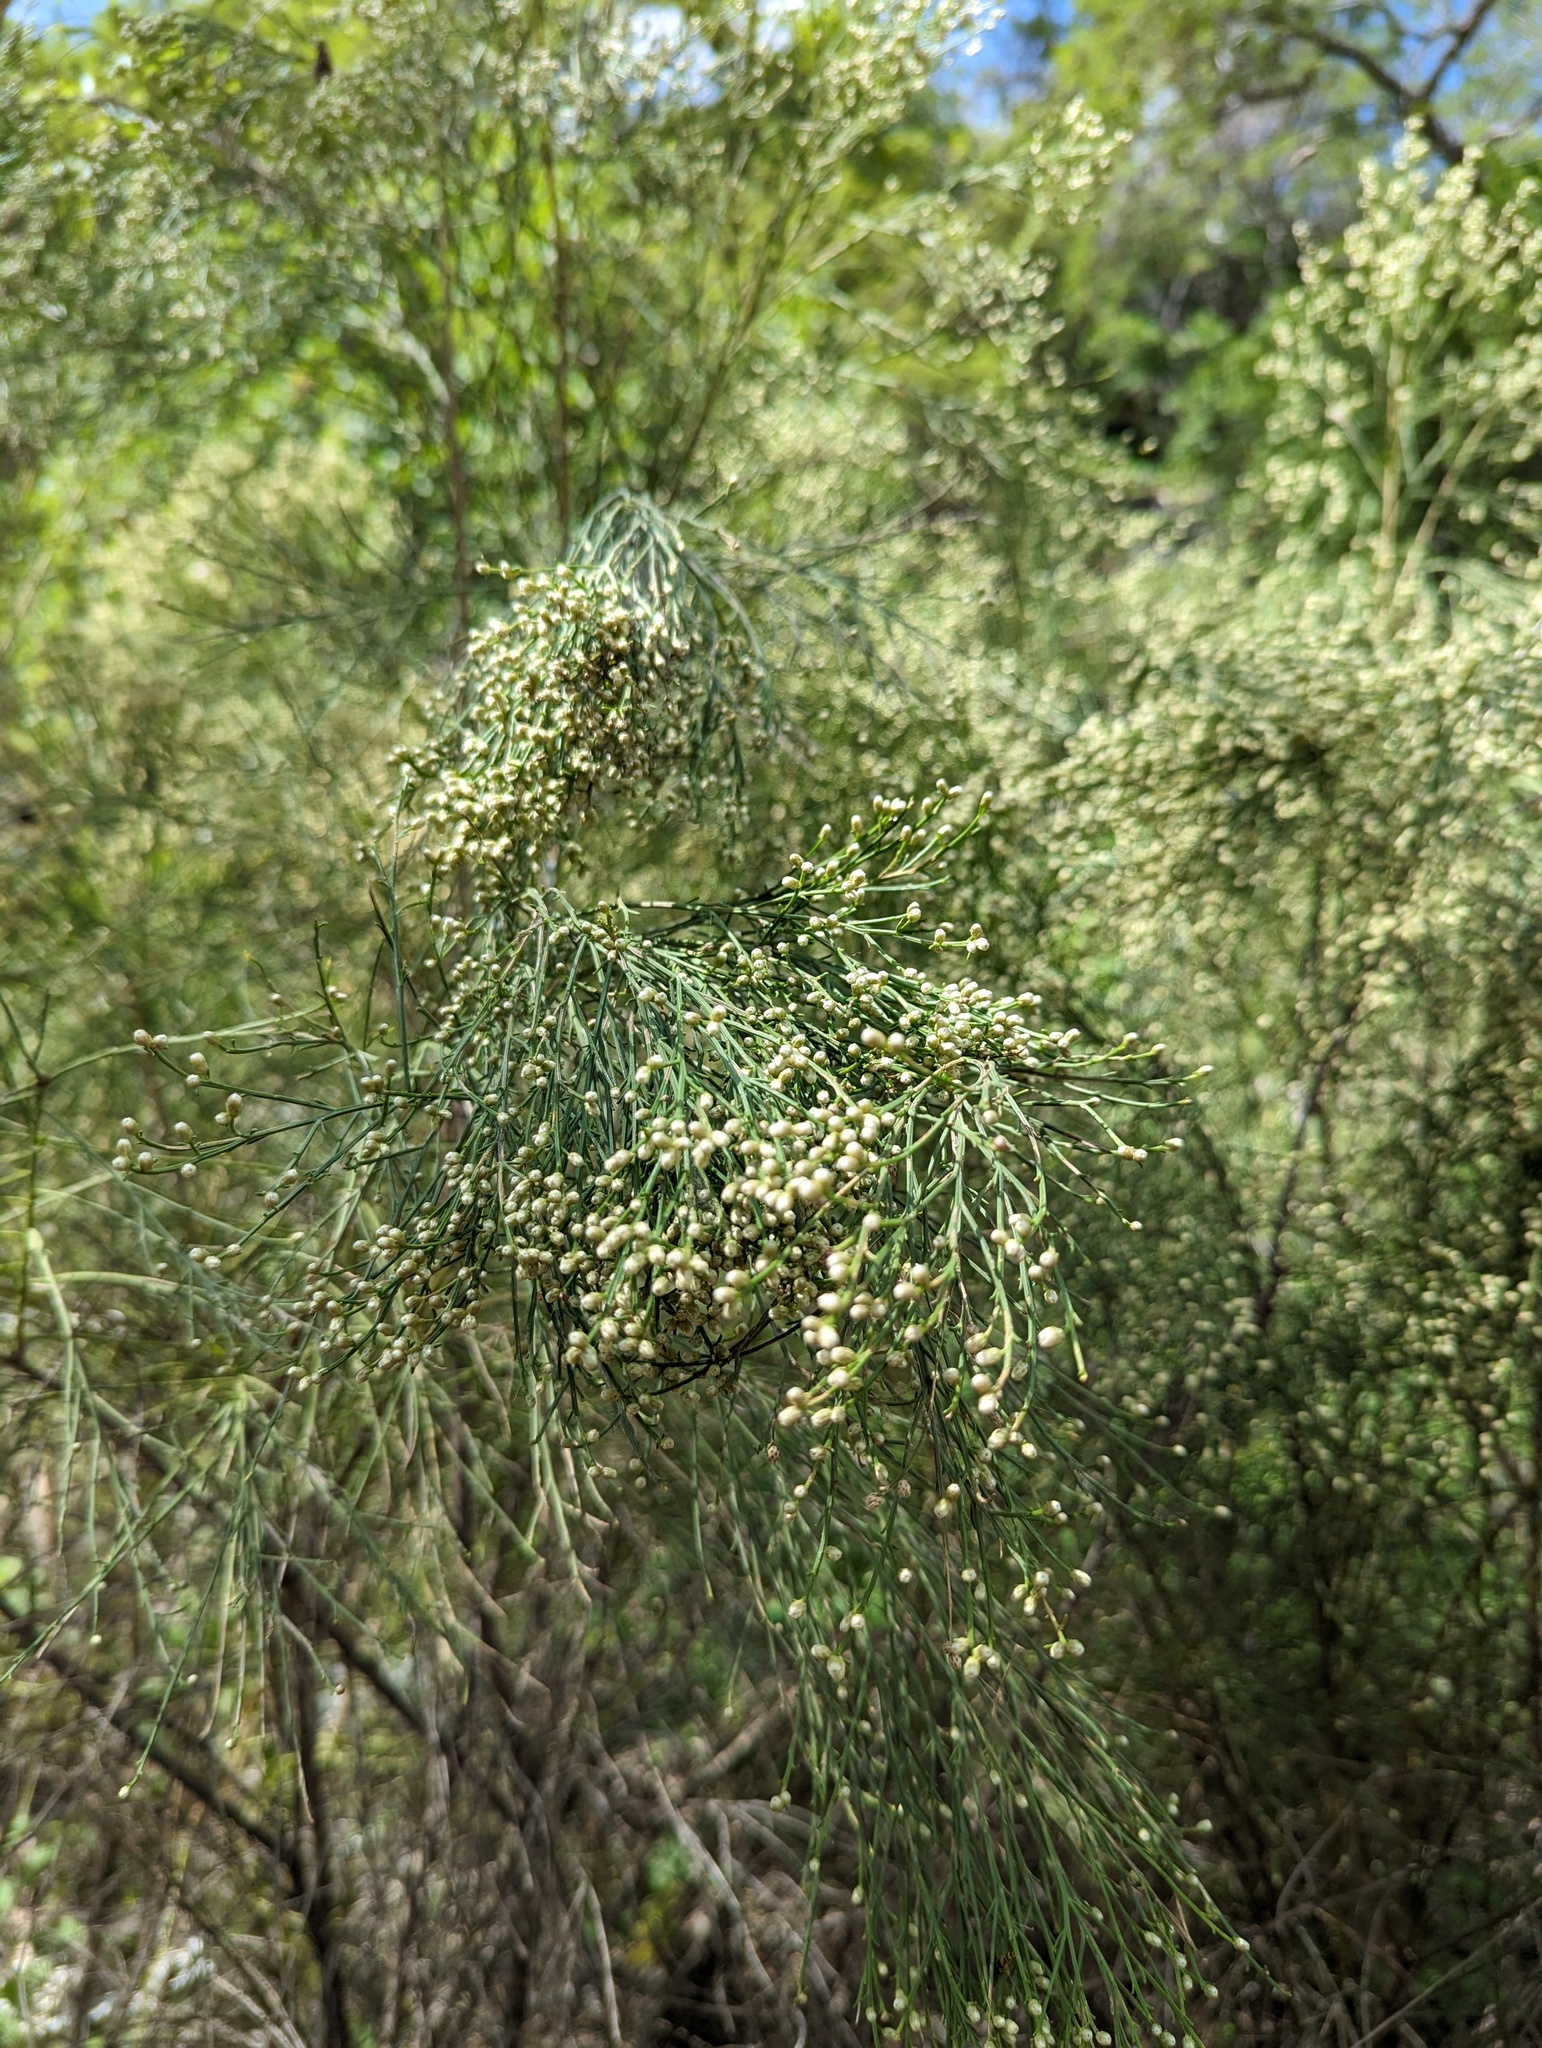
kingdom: Plantae
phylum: Tracheophyta
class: Magnoliopsida
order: Asterales
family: Asteraceae
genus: Baccharis
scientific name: Baccharis sarothroides
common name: Desert-broom
